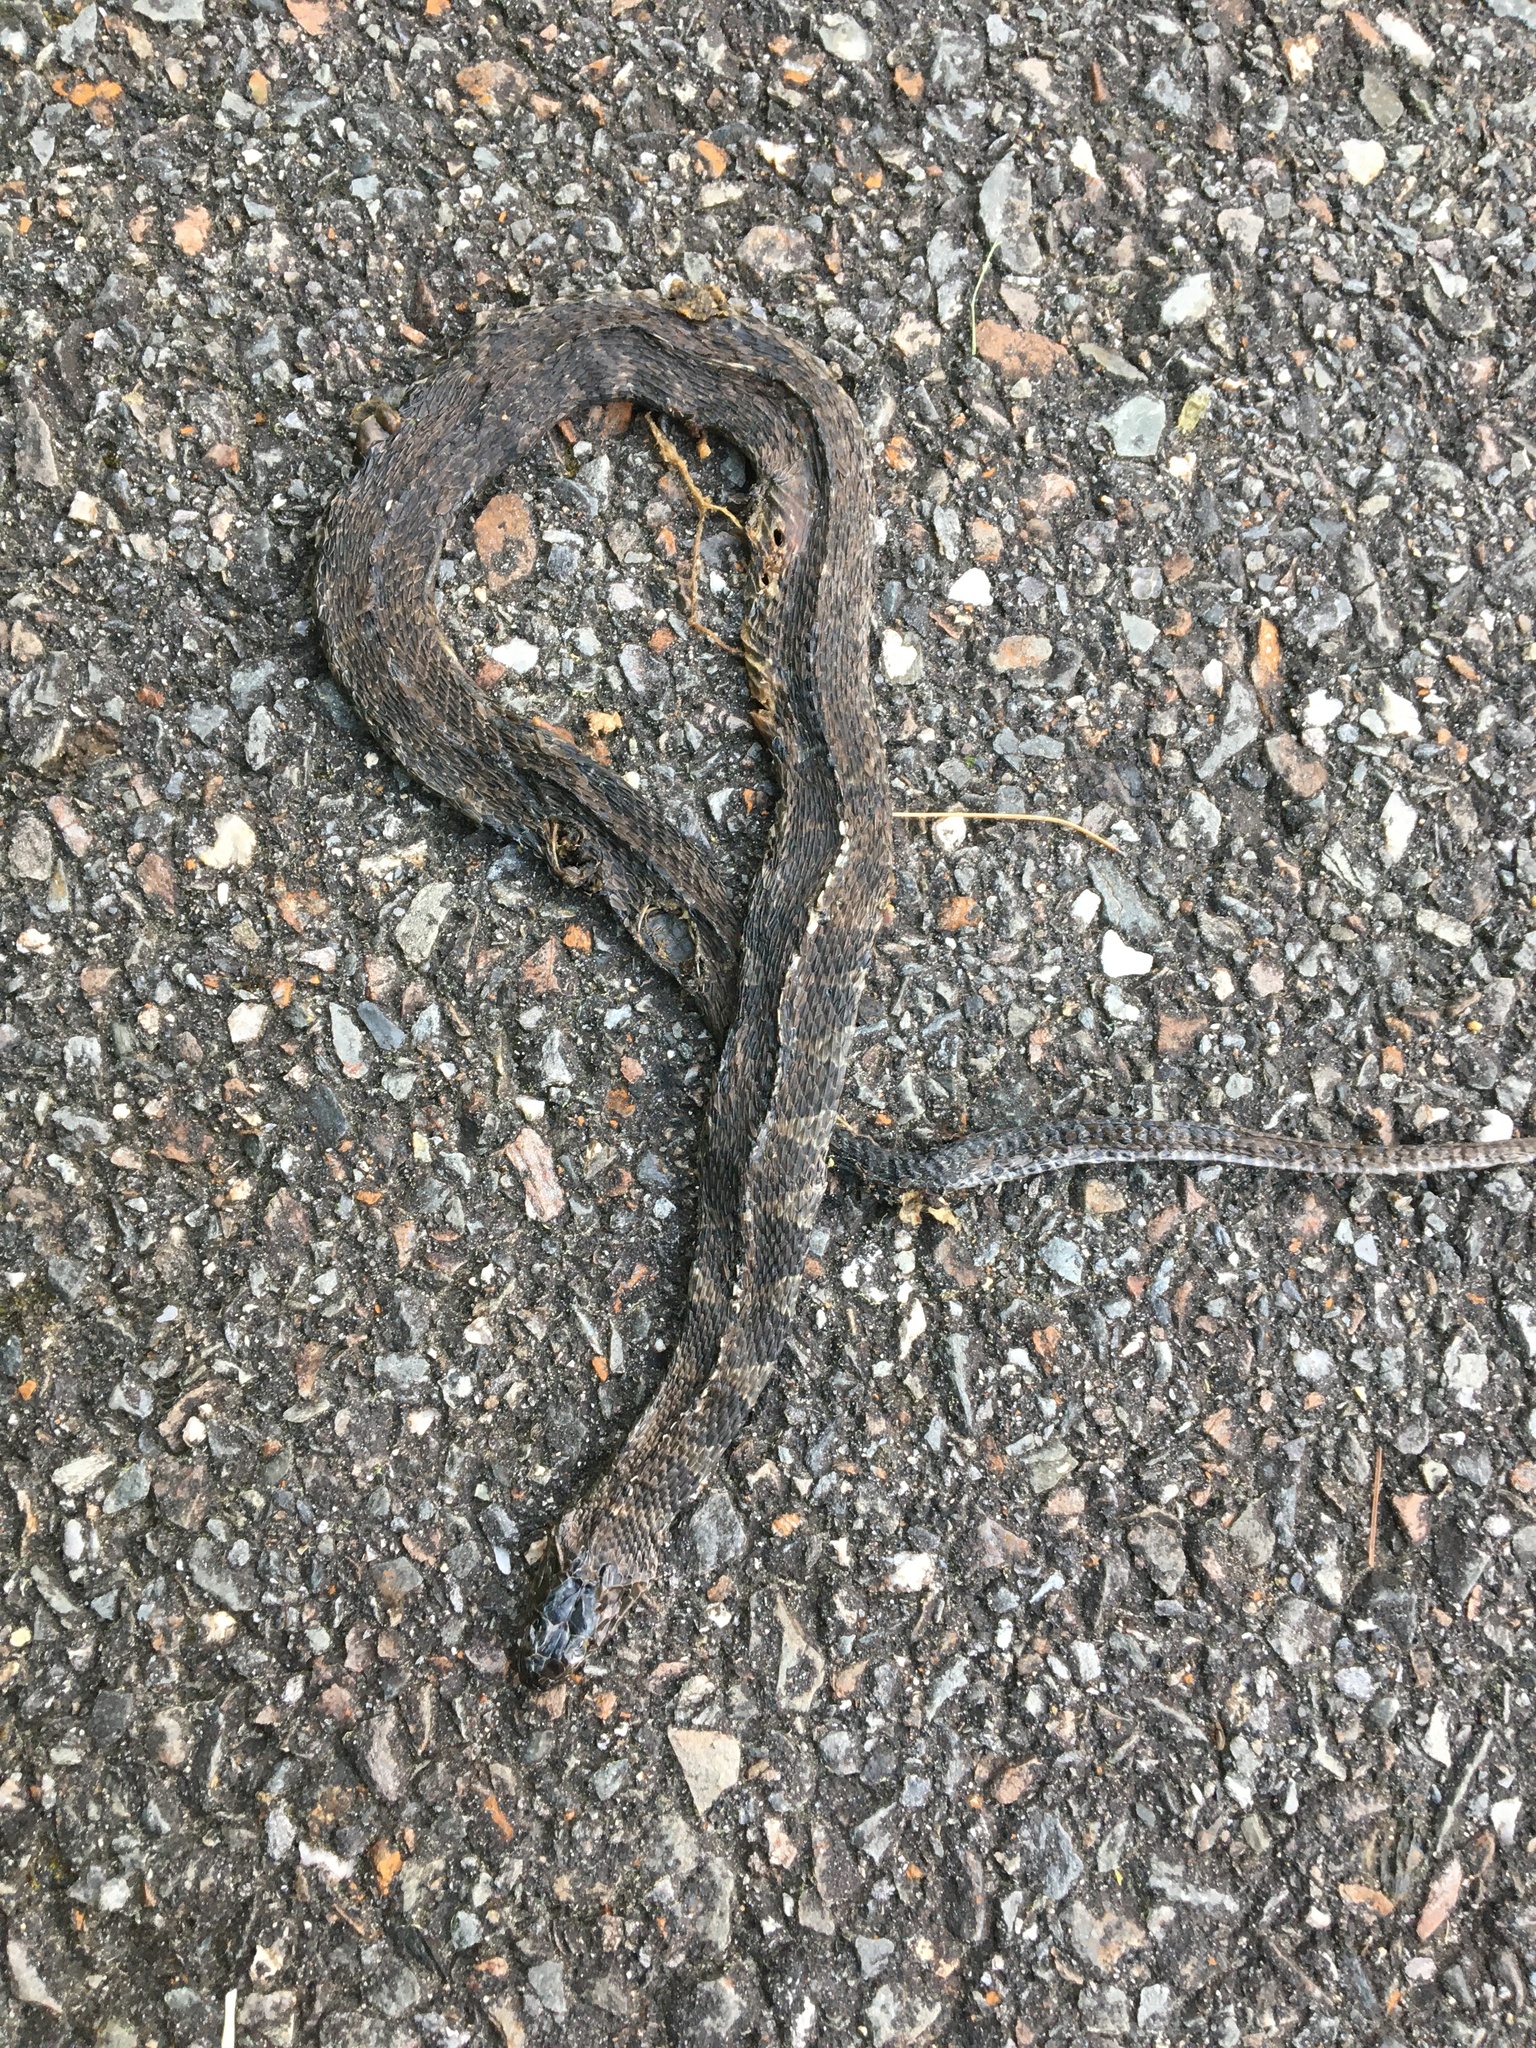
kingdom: Animalia
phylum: Chordata
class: Squamata
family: Colubridae
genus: Nerodia
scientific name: Nerodia sipedon
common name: Northern water snake
